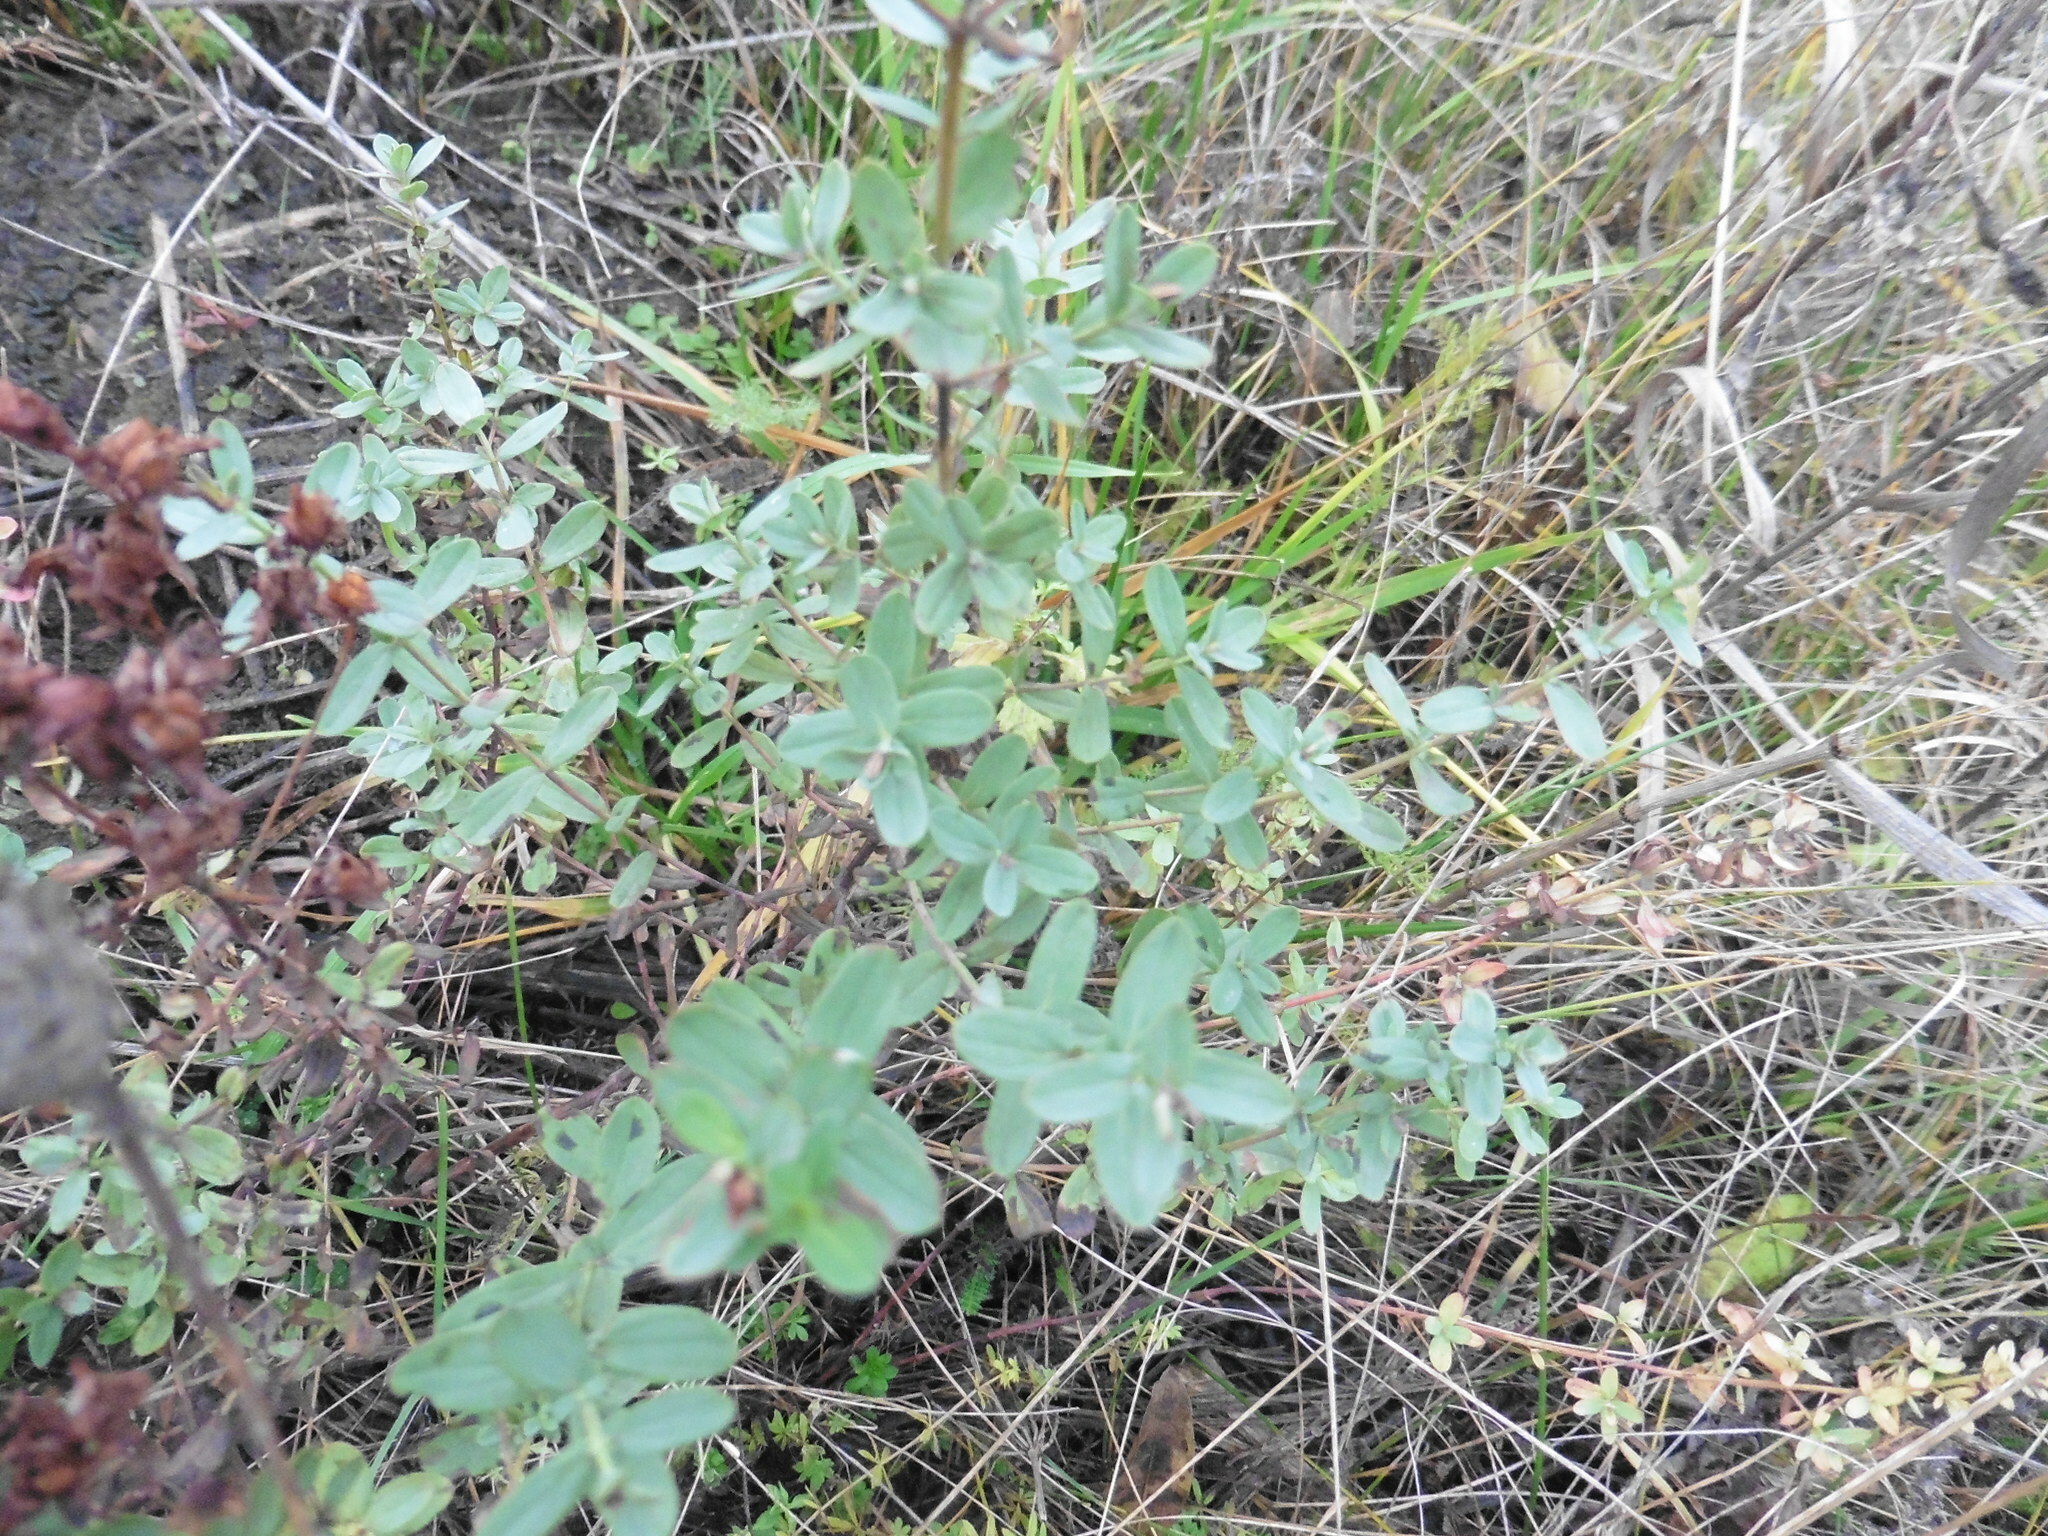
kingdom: Plantae
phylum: Tracheophyta
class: Magnoliopsida
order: Malpighiales
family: Hypericaceae
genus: Hypericum
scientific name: Hypericum perforatum
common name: Common st. johnswort
